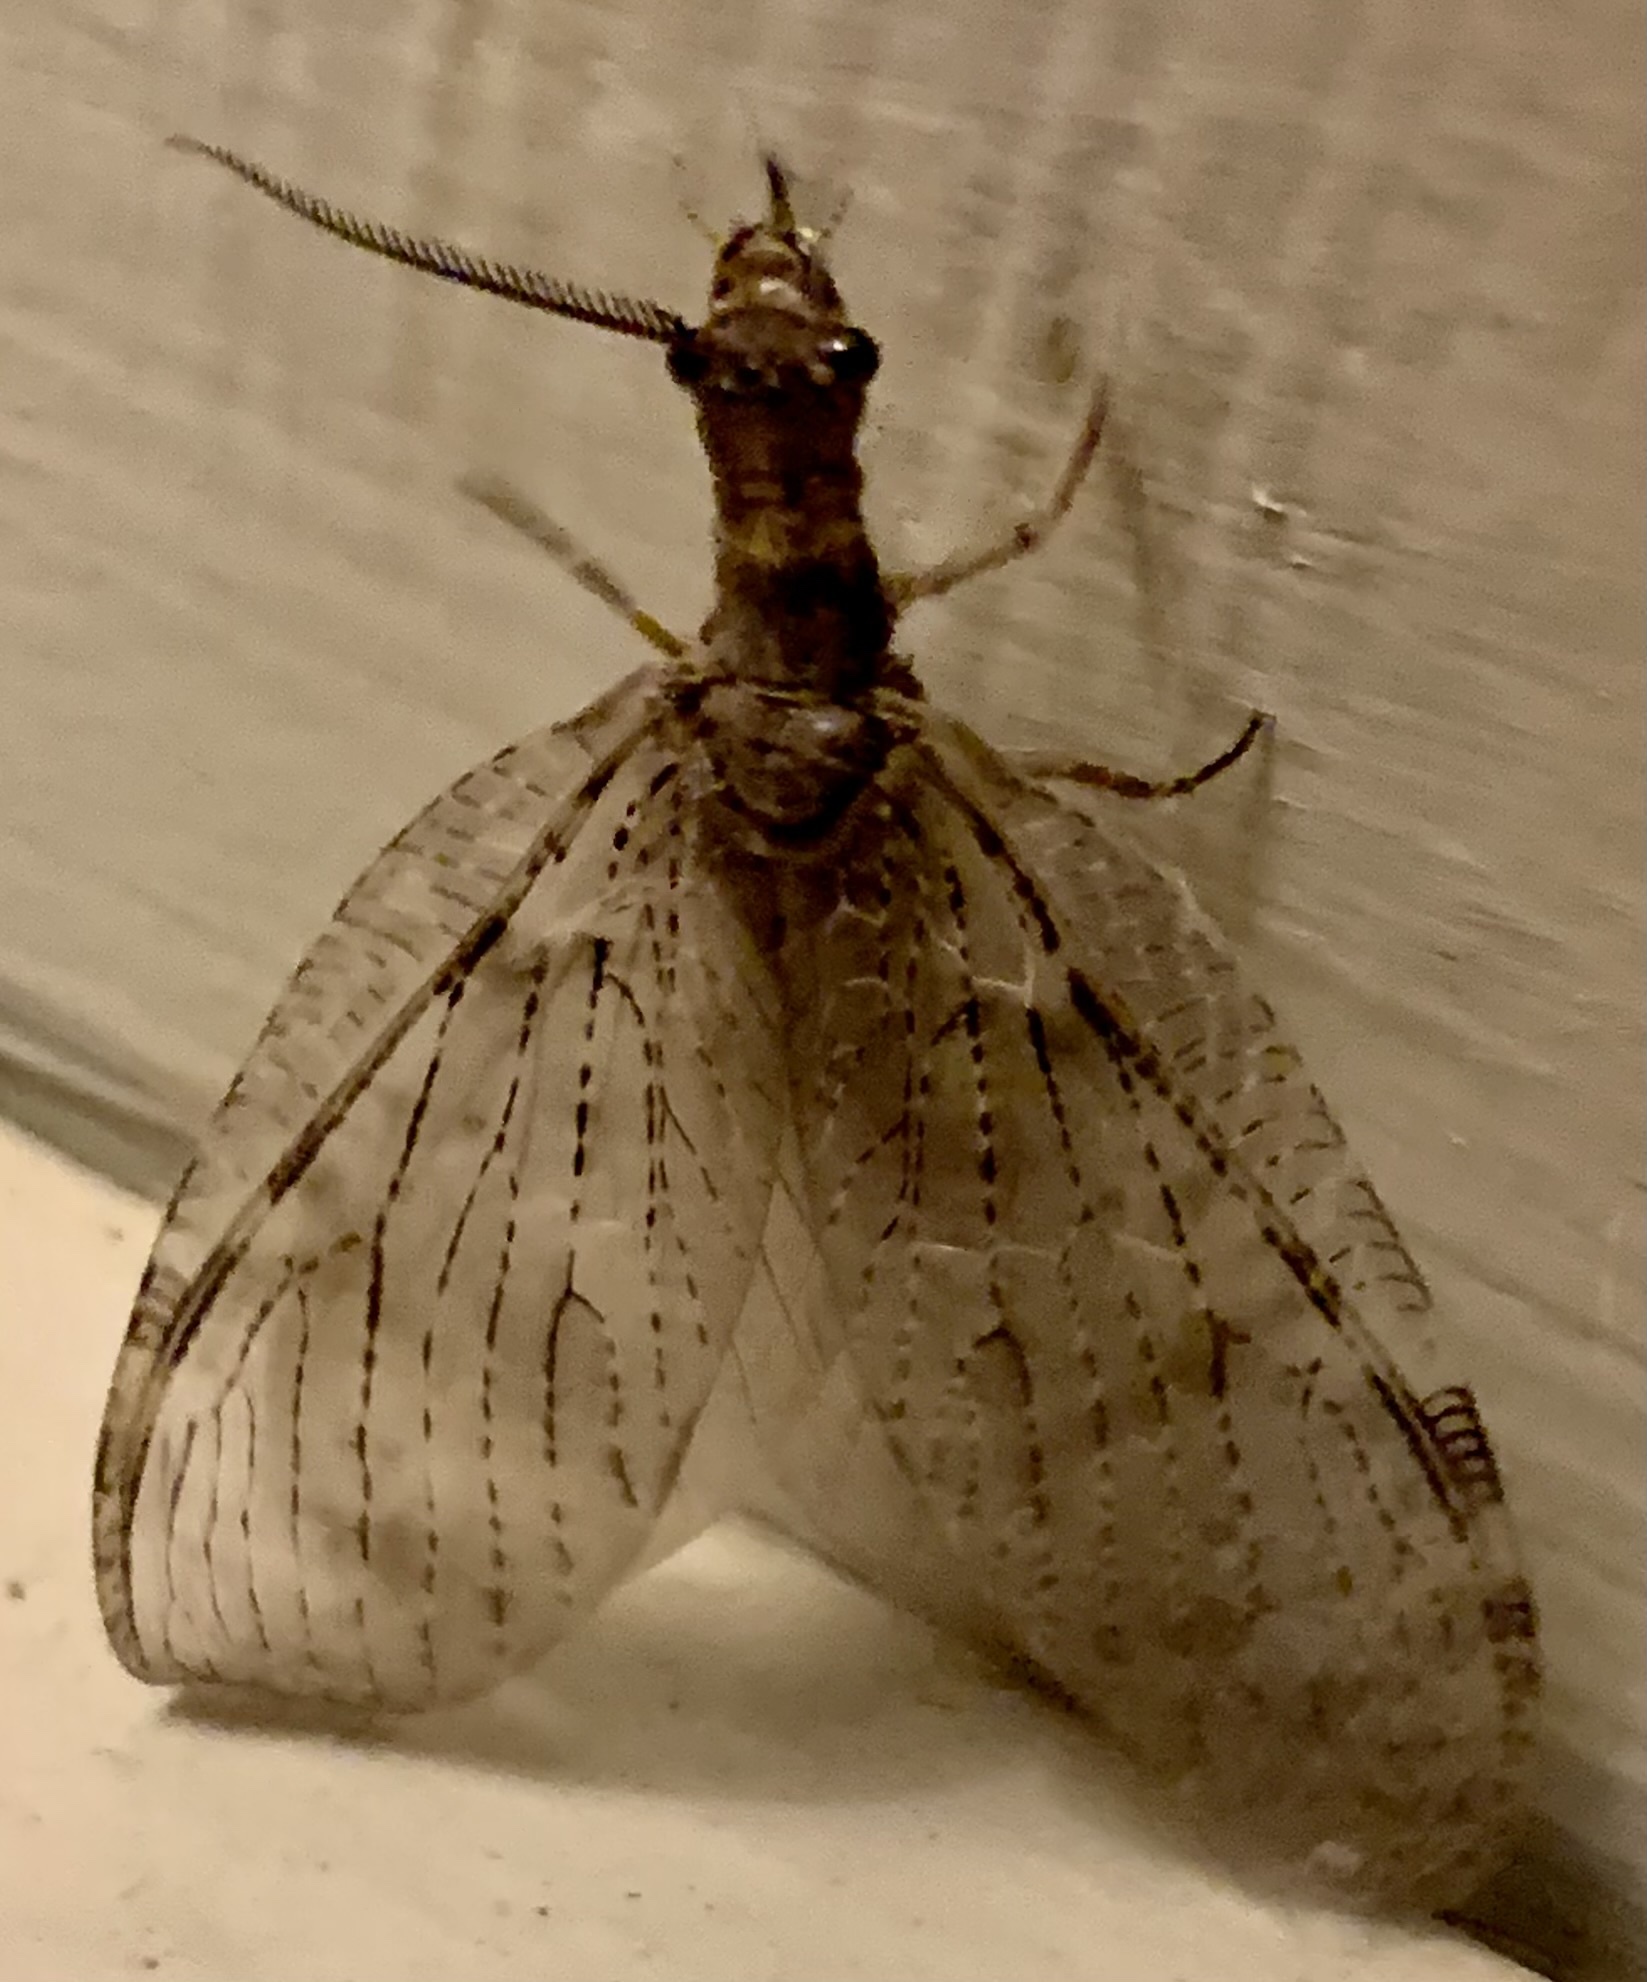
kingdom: Animalia
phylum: Arthropoda
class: Insecta
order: Megaloptera
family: Corydalidae
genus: Chauliodes
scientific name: Chauliodes pectinicornis
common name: Summer fishfly
